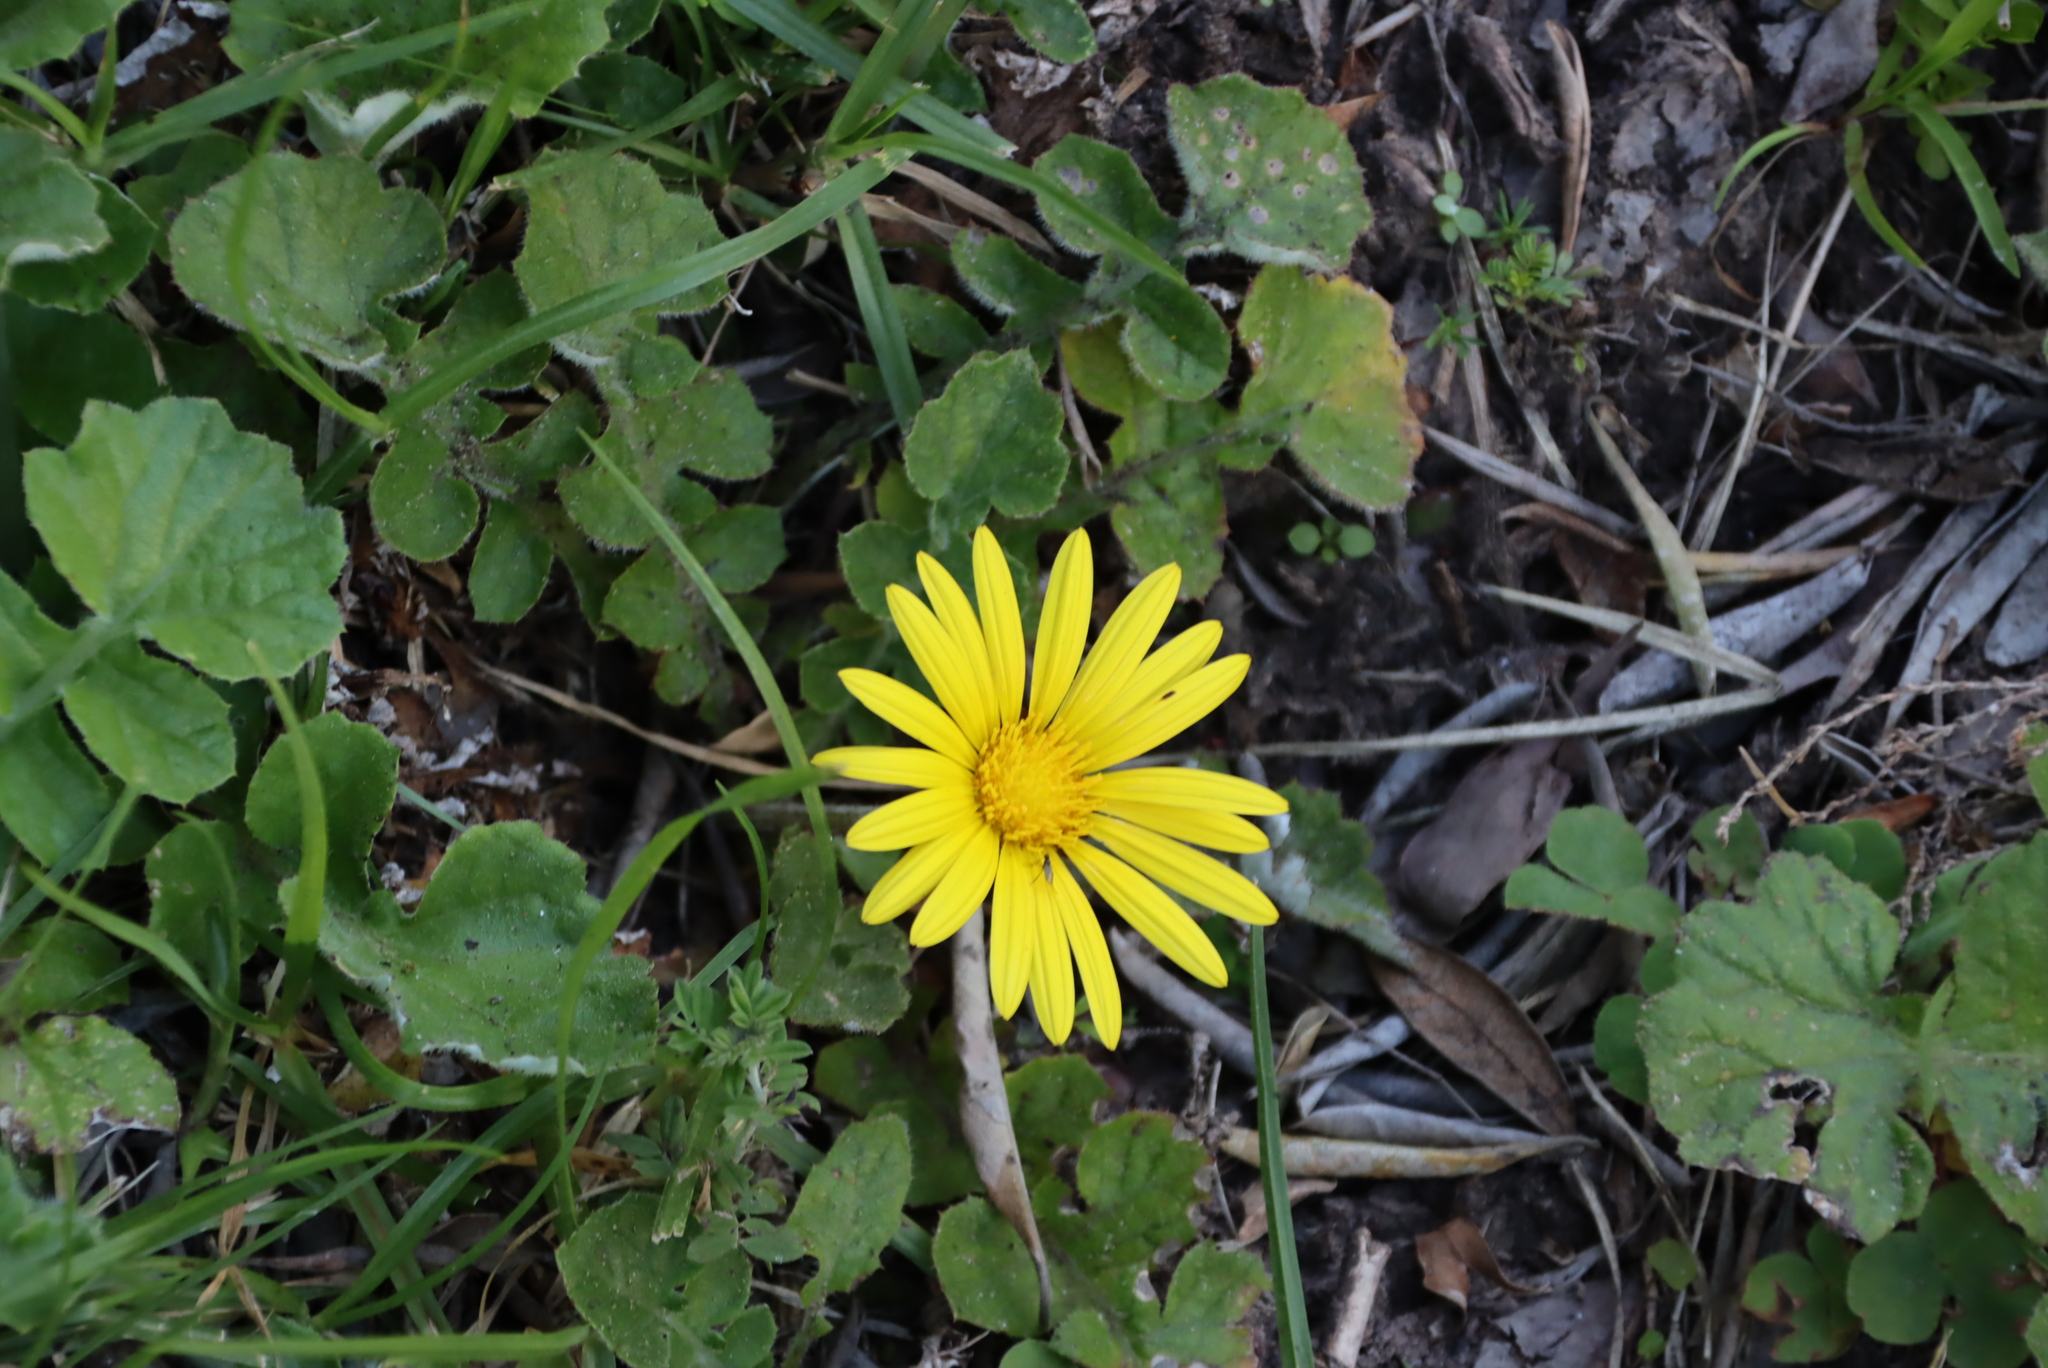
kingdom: Plantae
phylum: Tracheophyta
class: Magnoliopsida
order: Asterales
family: Asteraceae
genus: Arctotheca
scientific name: Arctotheca prostrata
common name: Capeweed
